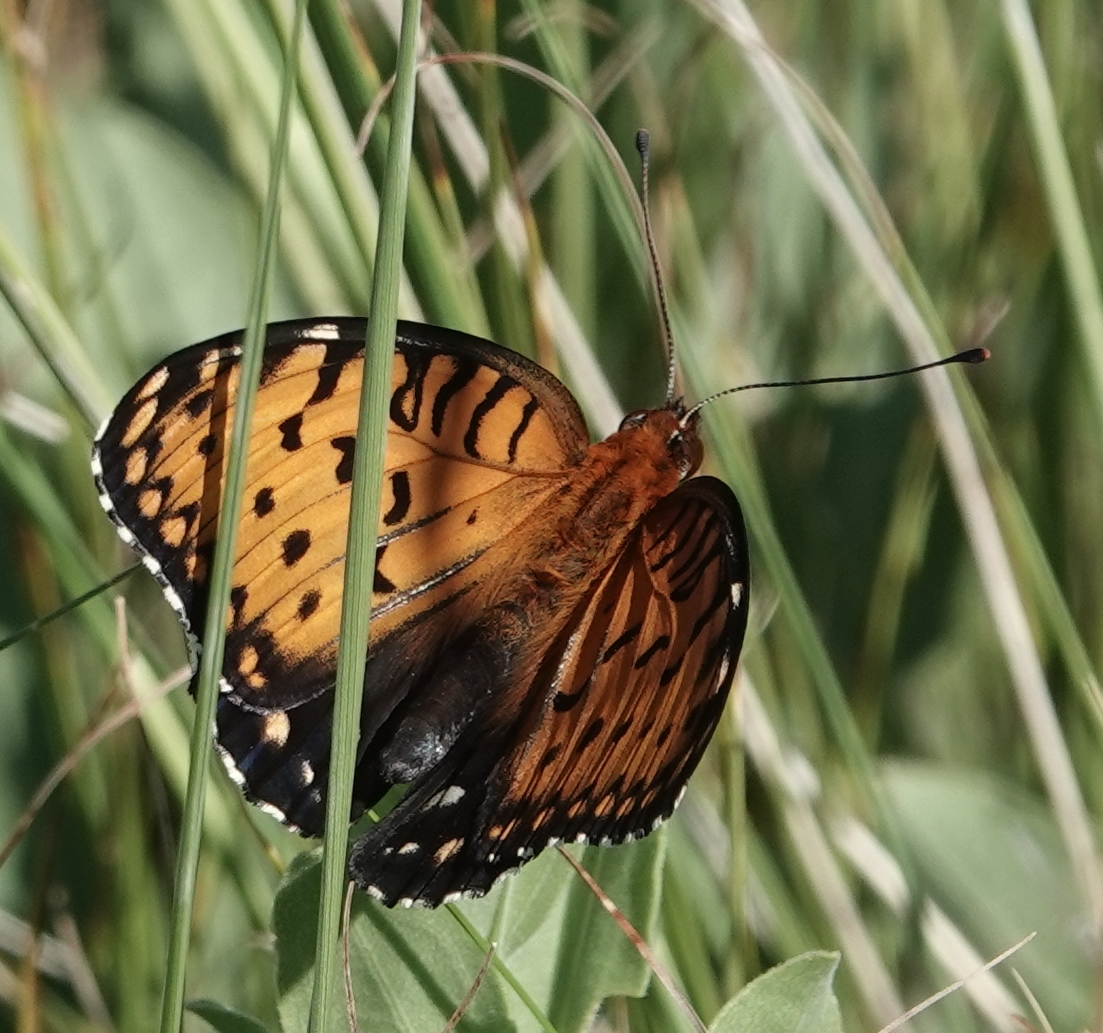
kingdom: Animalia
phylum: Arthropoda
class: Insecta
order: Lepidoptera
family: Nymphalidae
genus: Speyeria
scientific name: Speyeria idalia
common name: Regal fritillary
